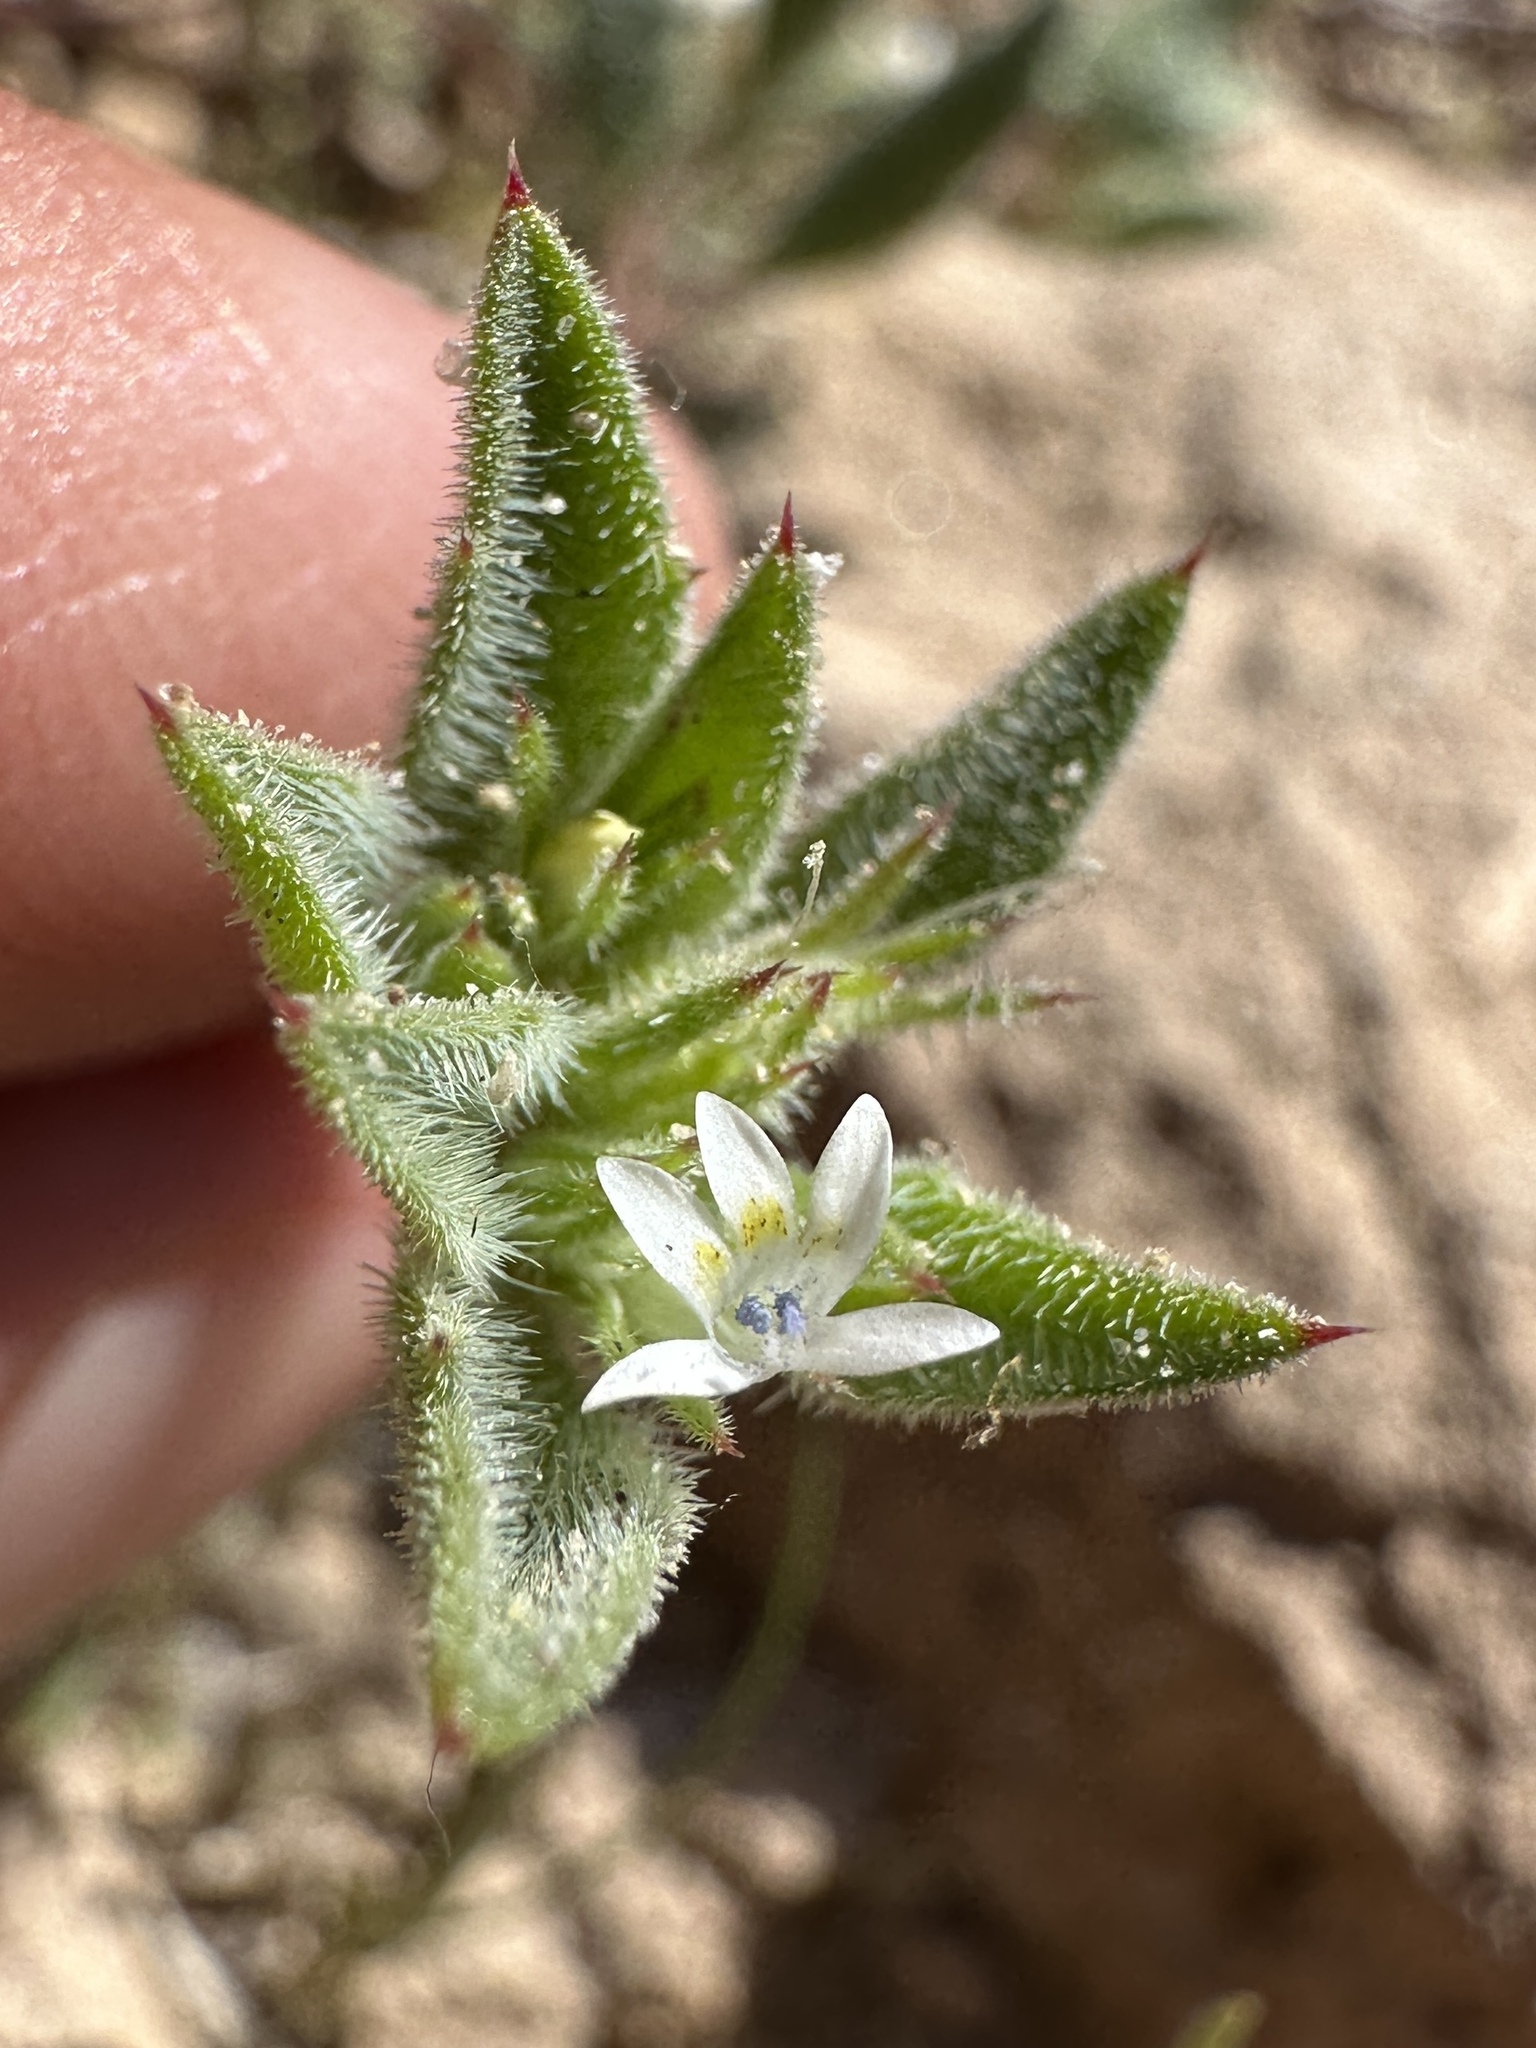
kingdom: Plantae
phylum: Tracheophyta
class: Magnoliopsida
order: Ericales
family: Polemoniaceae
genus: Loeseliastrum
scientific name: Loeseliastrum depressum
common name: Depressed ipomopsis
